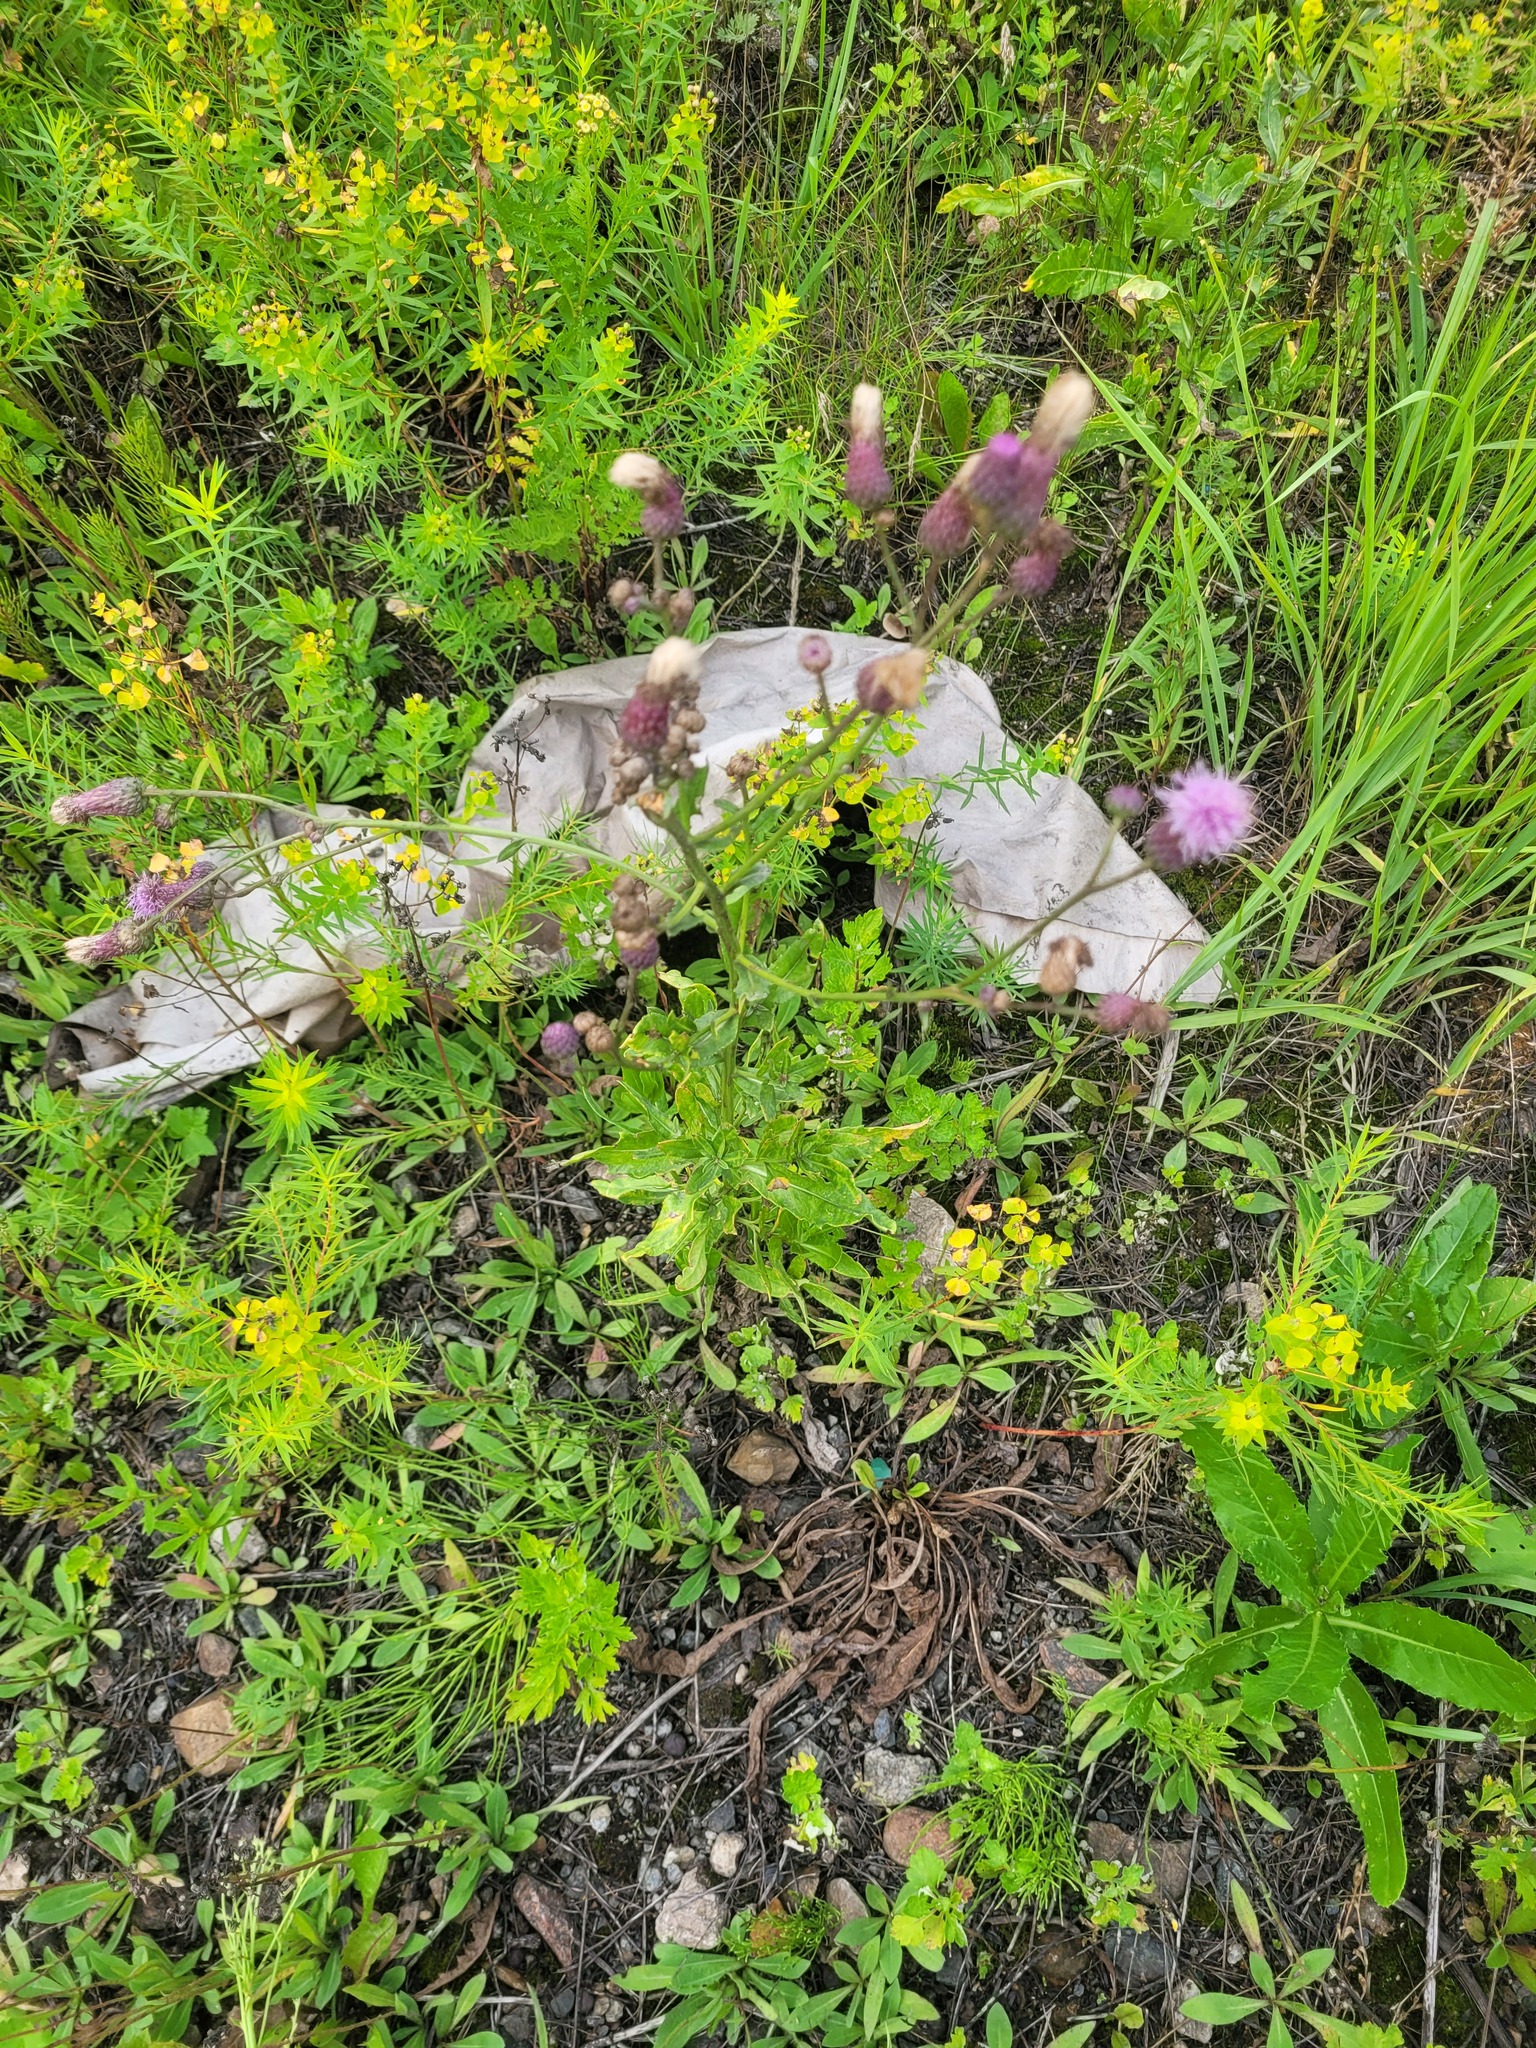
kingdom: Plantae
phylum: Tracheophyta
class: Magnoliopsida
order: Asterales
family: Asteraceae
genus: Cirsium
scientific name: Cirsium arvense
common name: Creeping thistle
